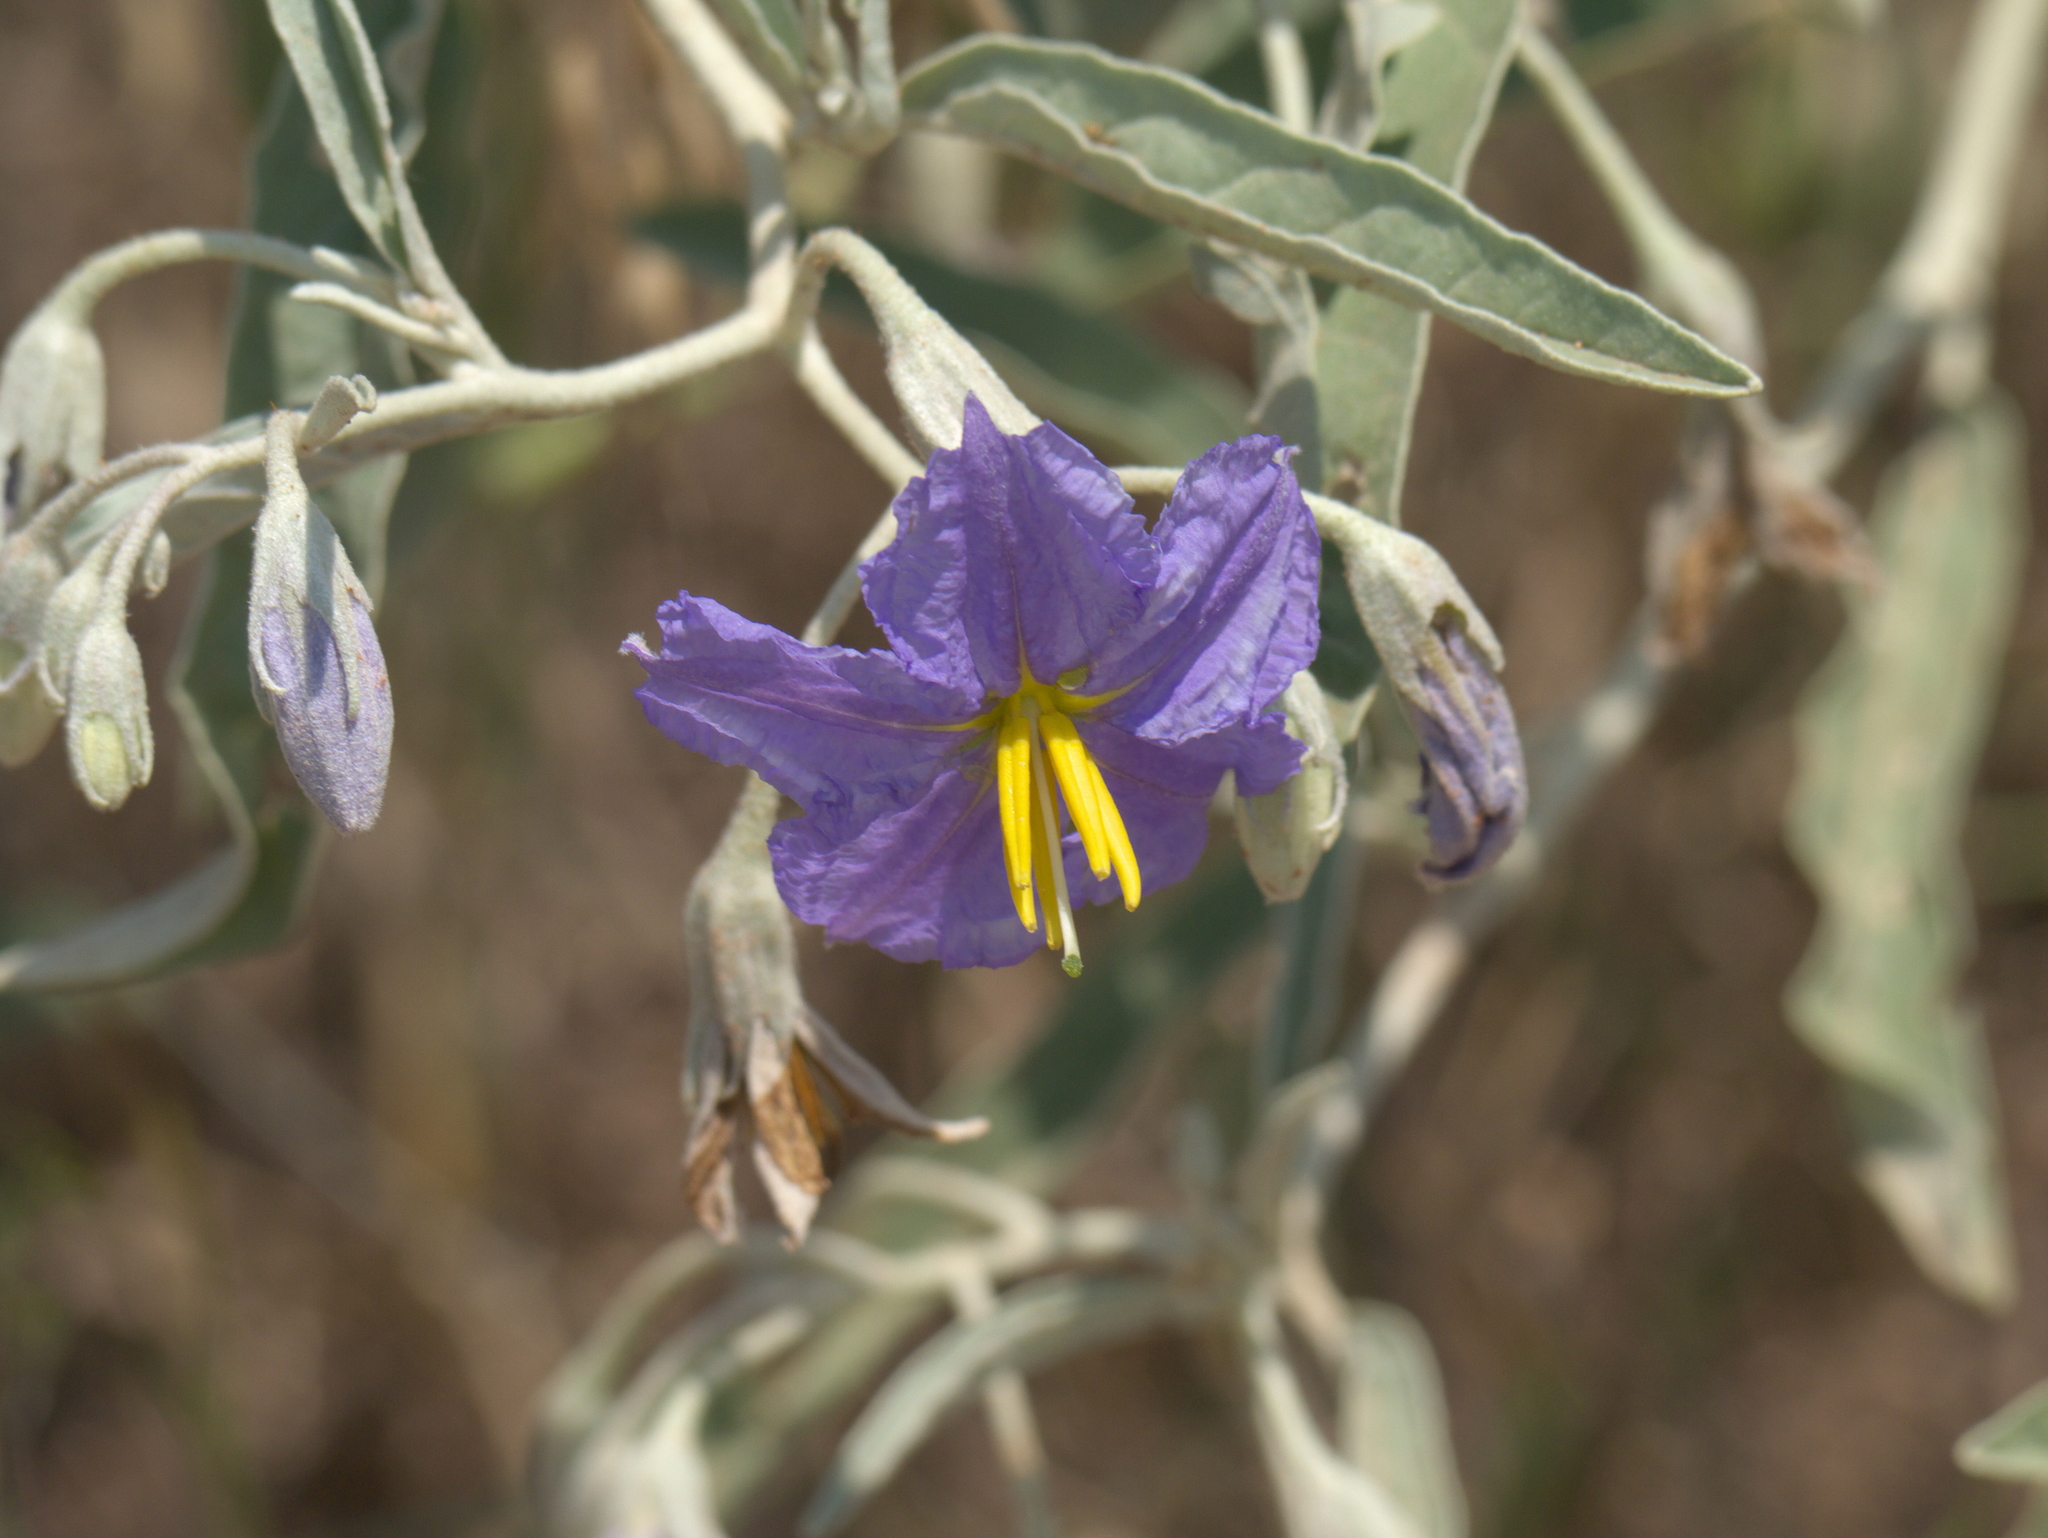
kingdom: Plantae
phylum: Tracheophyta
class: Magnoliopsida
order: Solanales
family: Solanaceae
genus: Solanum
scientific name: Solanum elaeagnifolium
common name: Silverleaf nightshade
